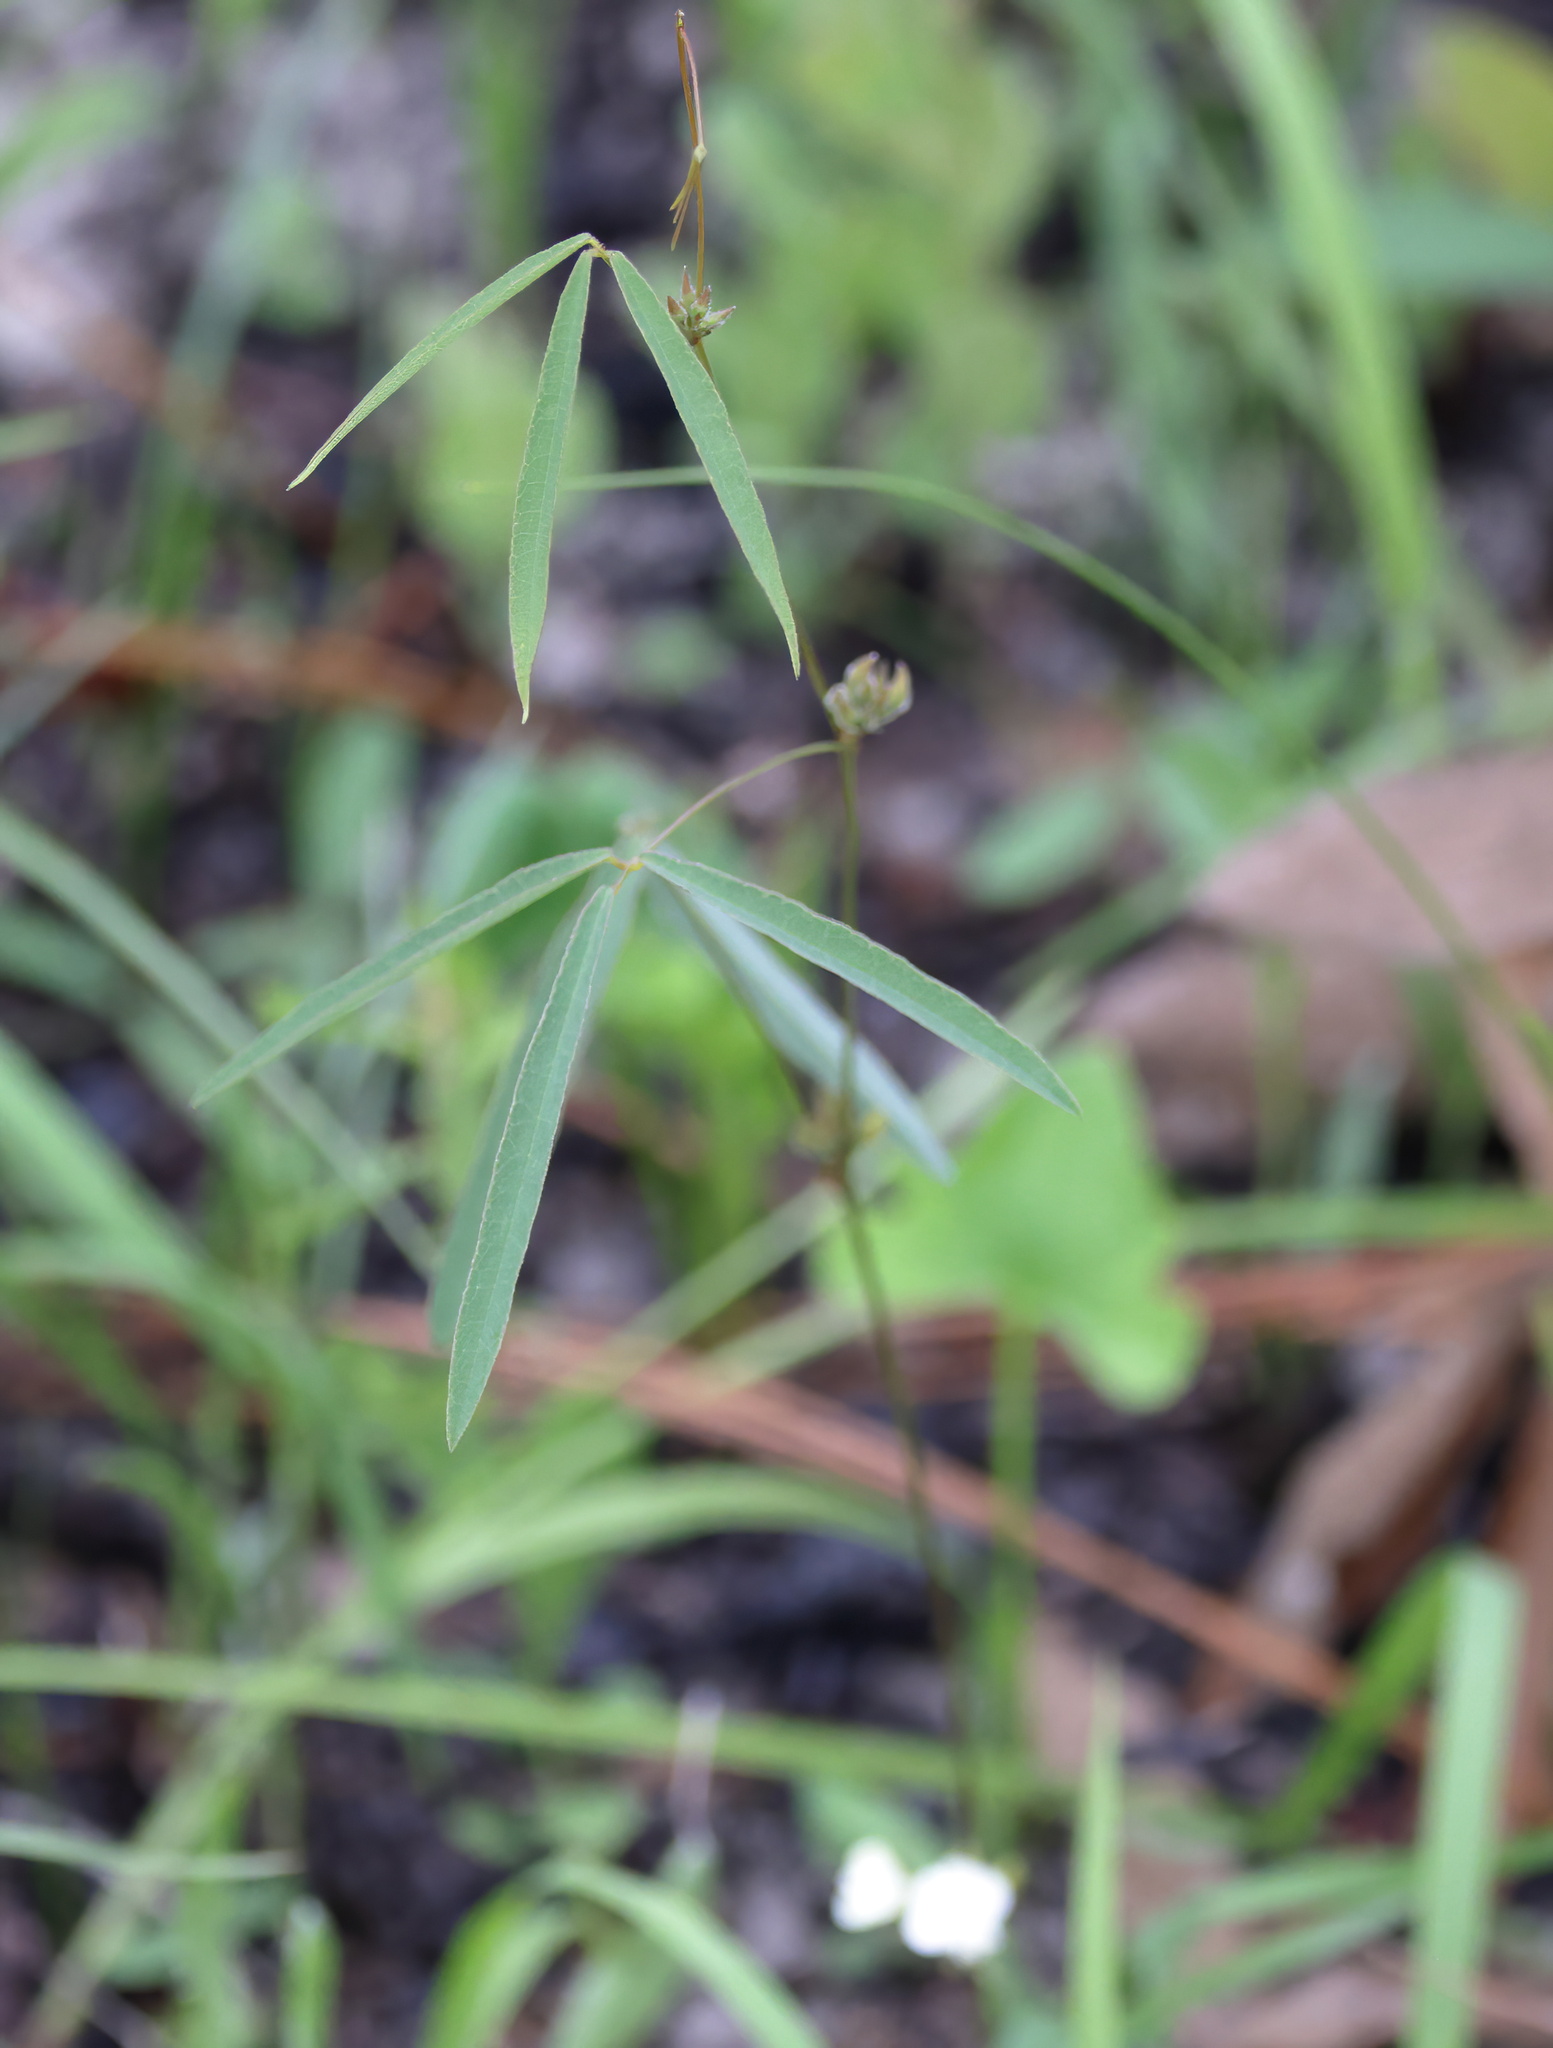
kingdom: Plantae
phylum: Tracheophyta
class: Magnoliopsida
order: Fabales
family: Fabaceae
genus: Galactia
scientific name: Galactia erecta
